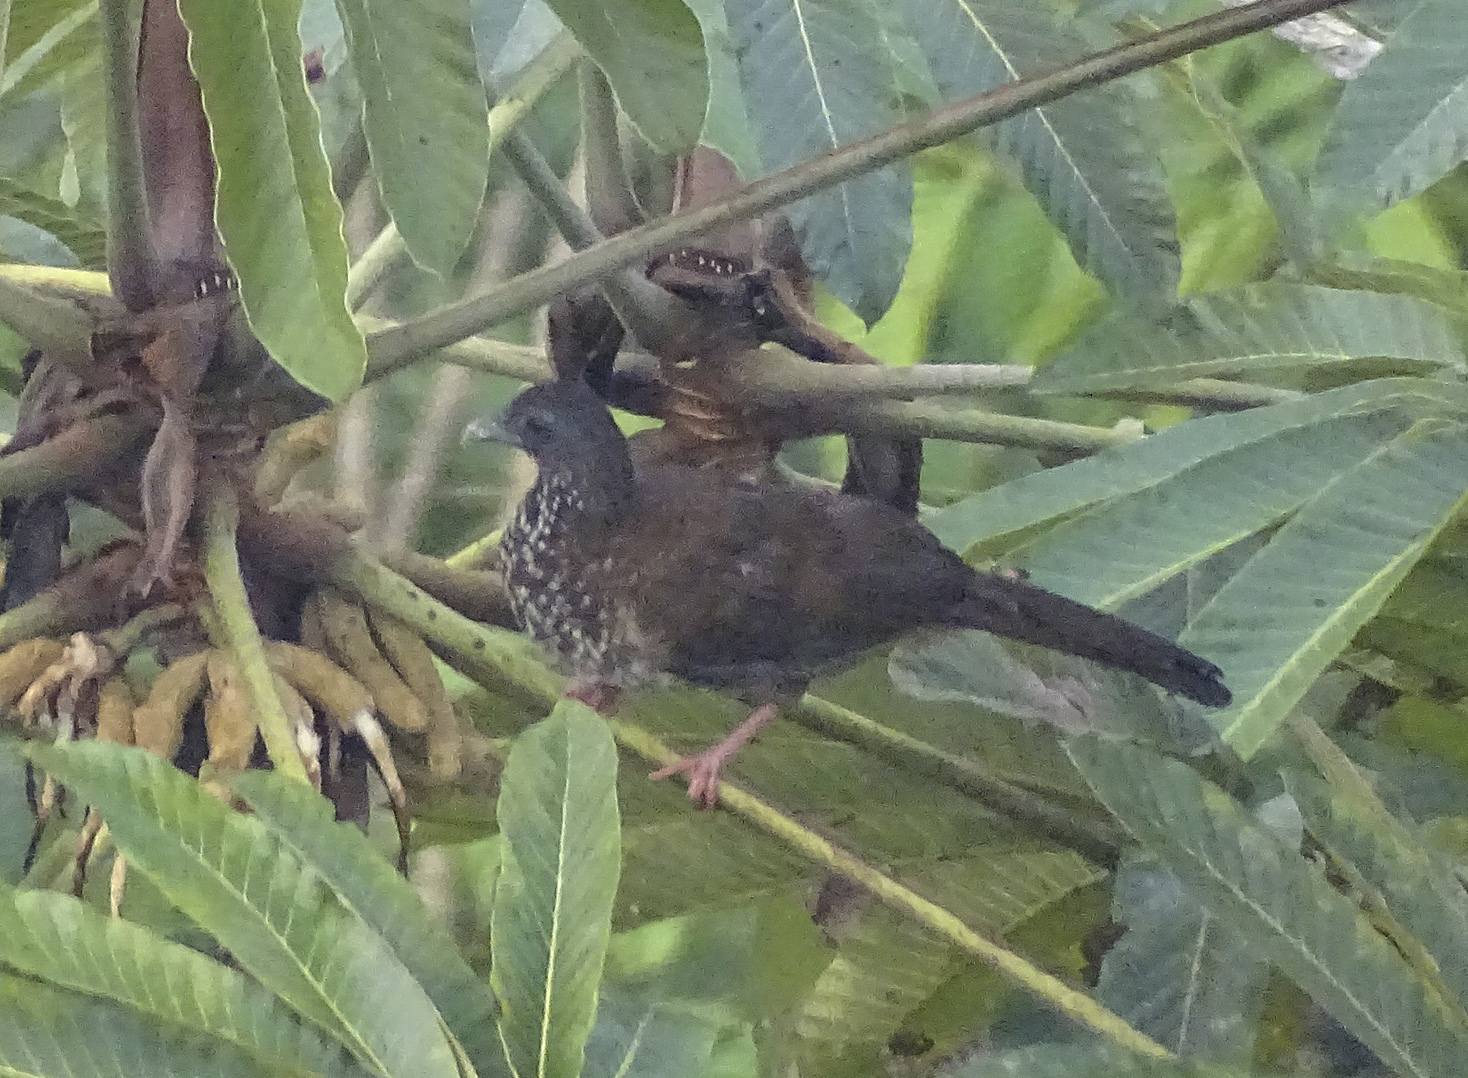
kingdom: Animalia
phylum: Chordata
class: Aves
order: Galliformes
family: Cracidae
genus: Ortalis
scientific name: Ortalis guttata
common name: Speckled chachalaca
